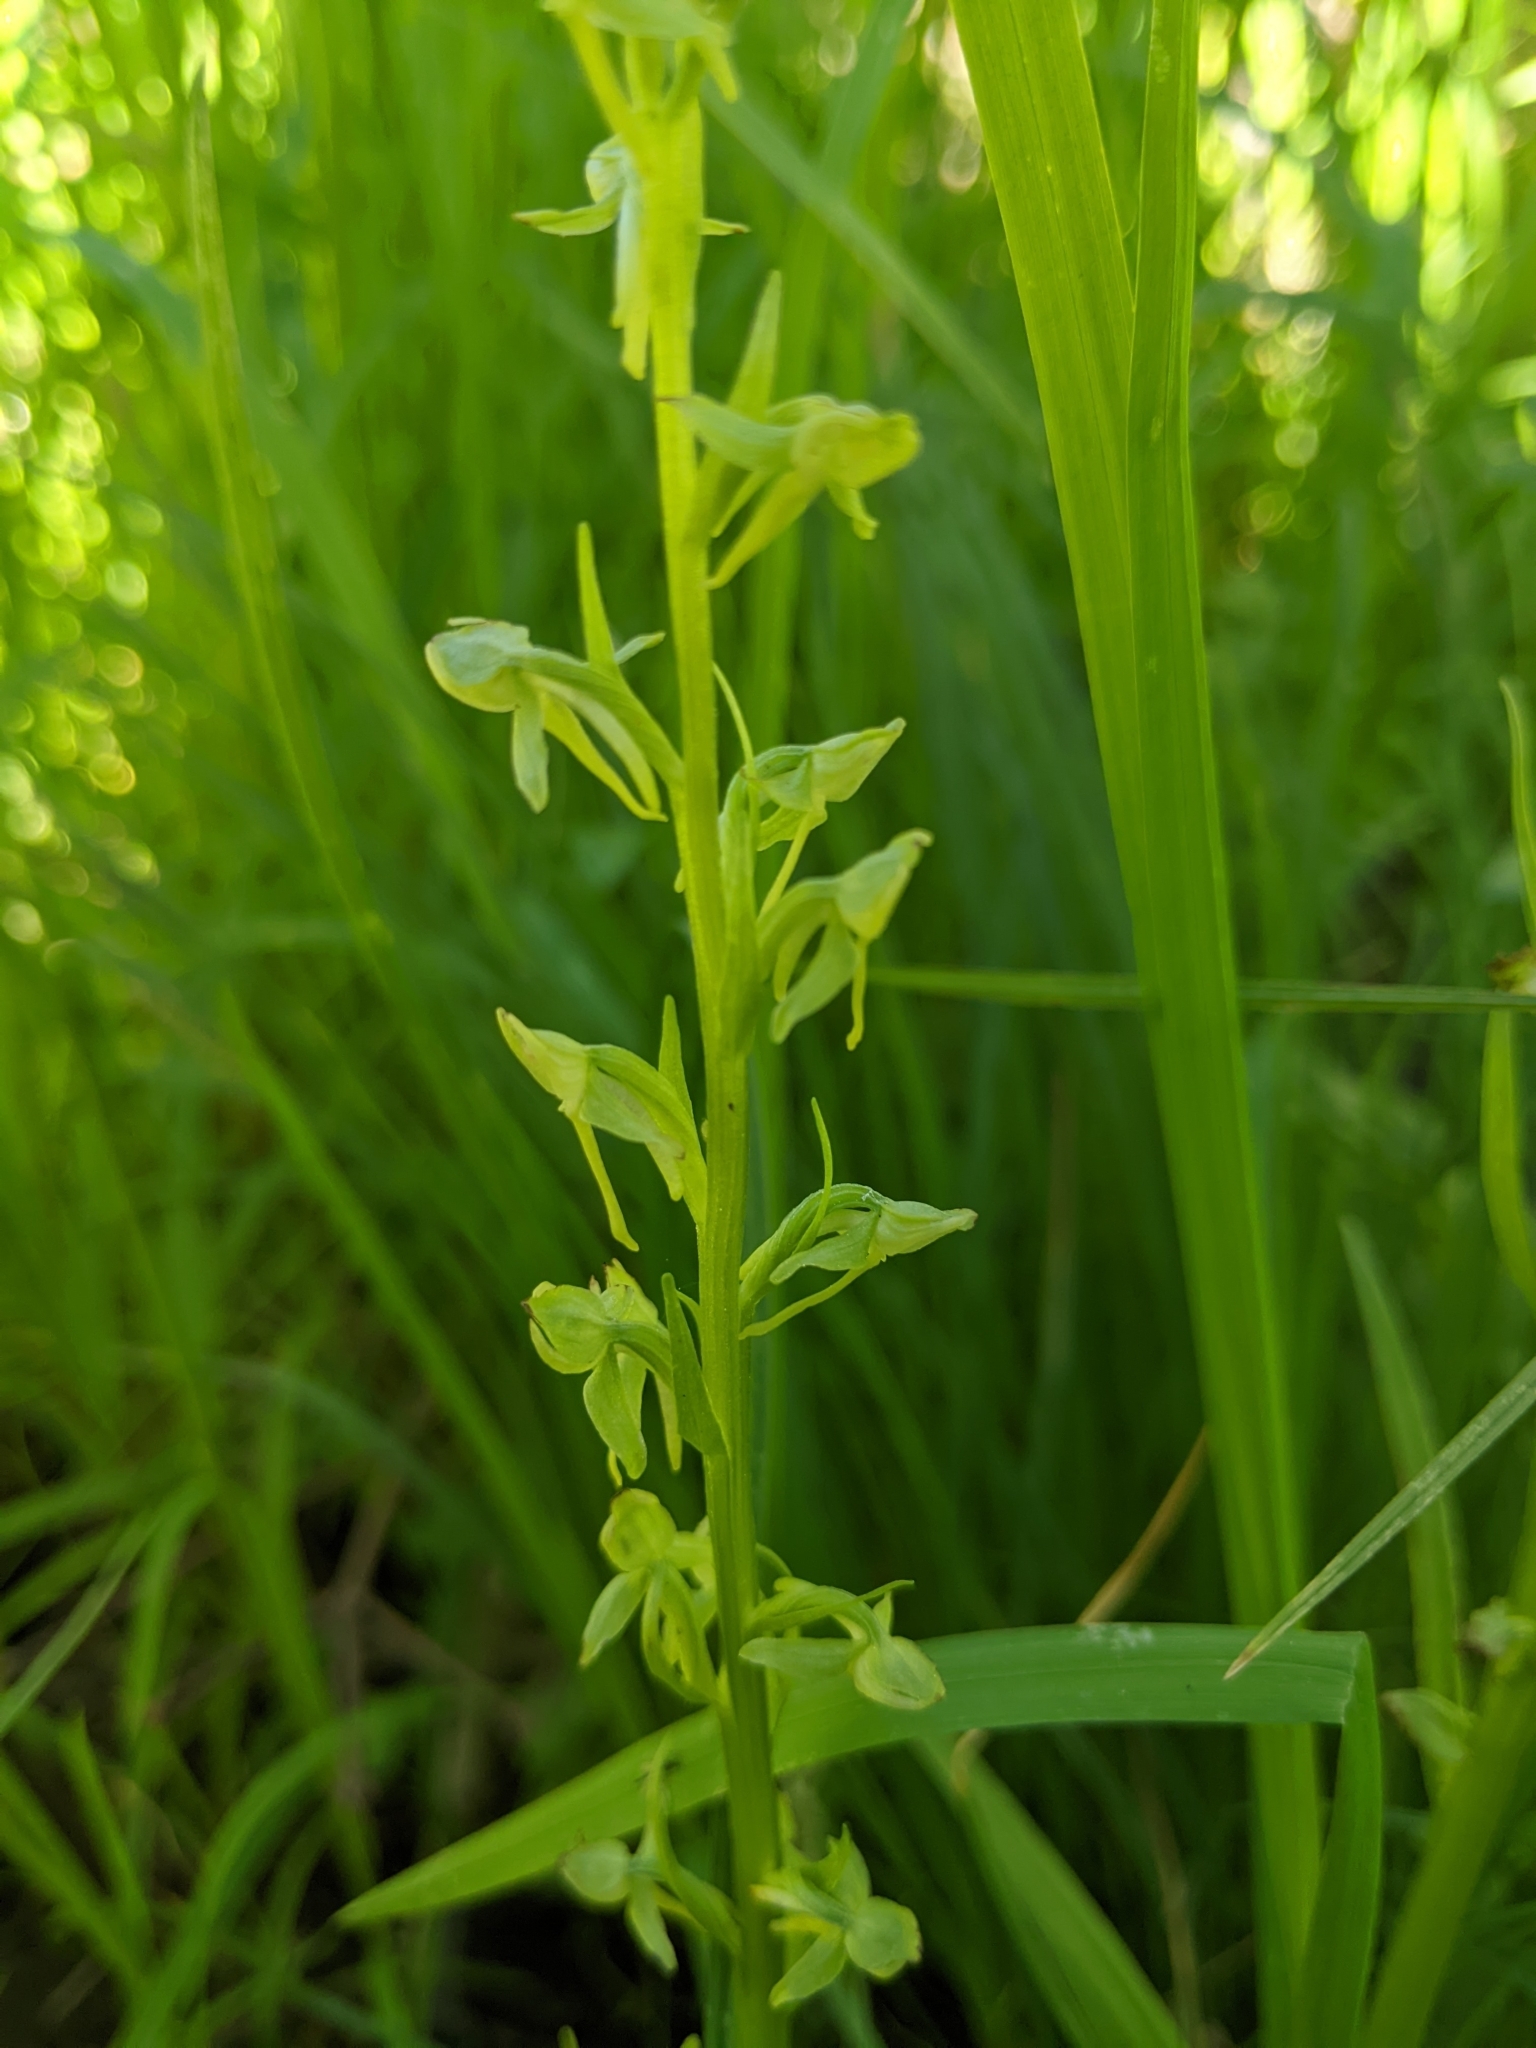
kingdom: Plantae
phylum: Tracheophyta
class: Liliopsida
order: Asparagales
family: Orchidaceae
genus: Platanthera
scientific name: Platanthera sparsiflora
